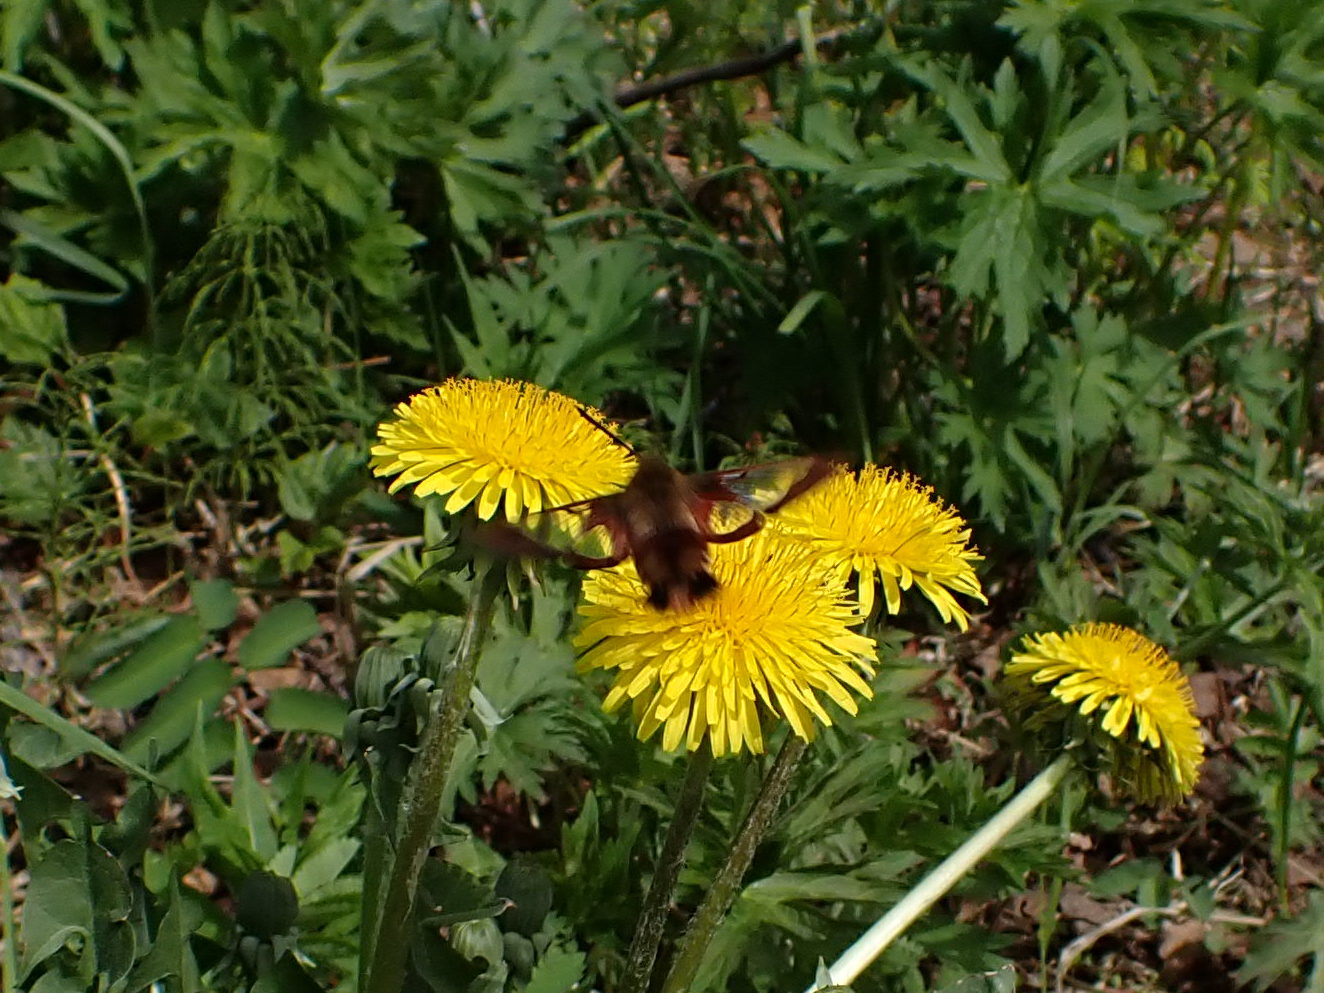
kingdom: Animalia
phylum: Arthropoda
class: Insecta
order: Lepidoptera
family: Sphingidae
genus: Hemaris
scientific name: Hemaris thysbe
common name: Common clear-wing
